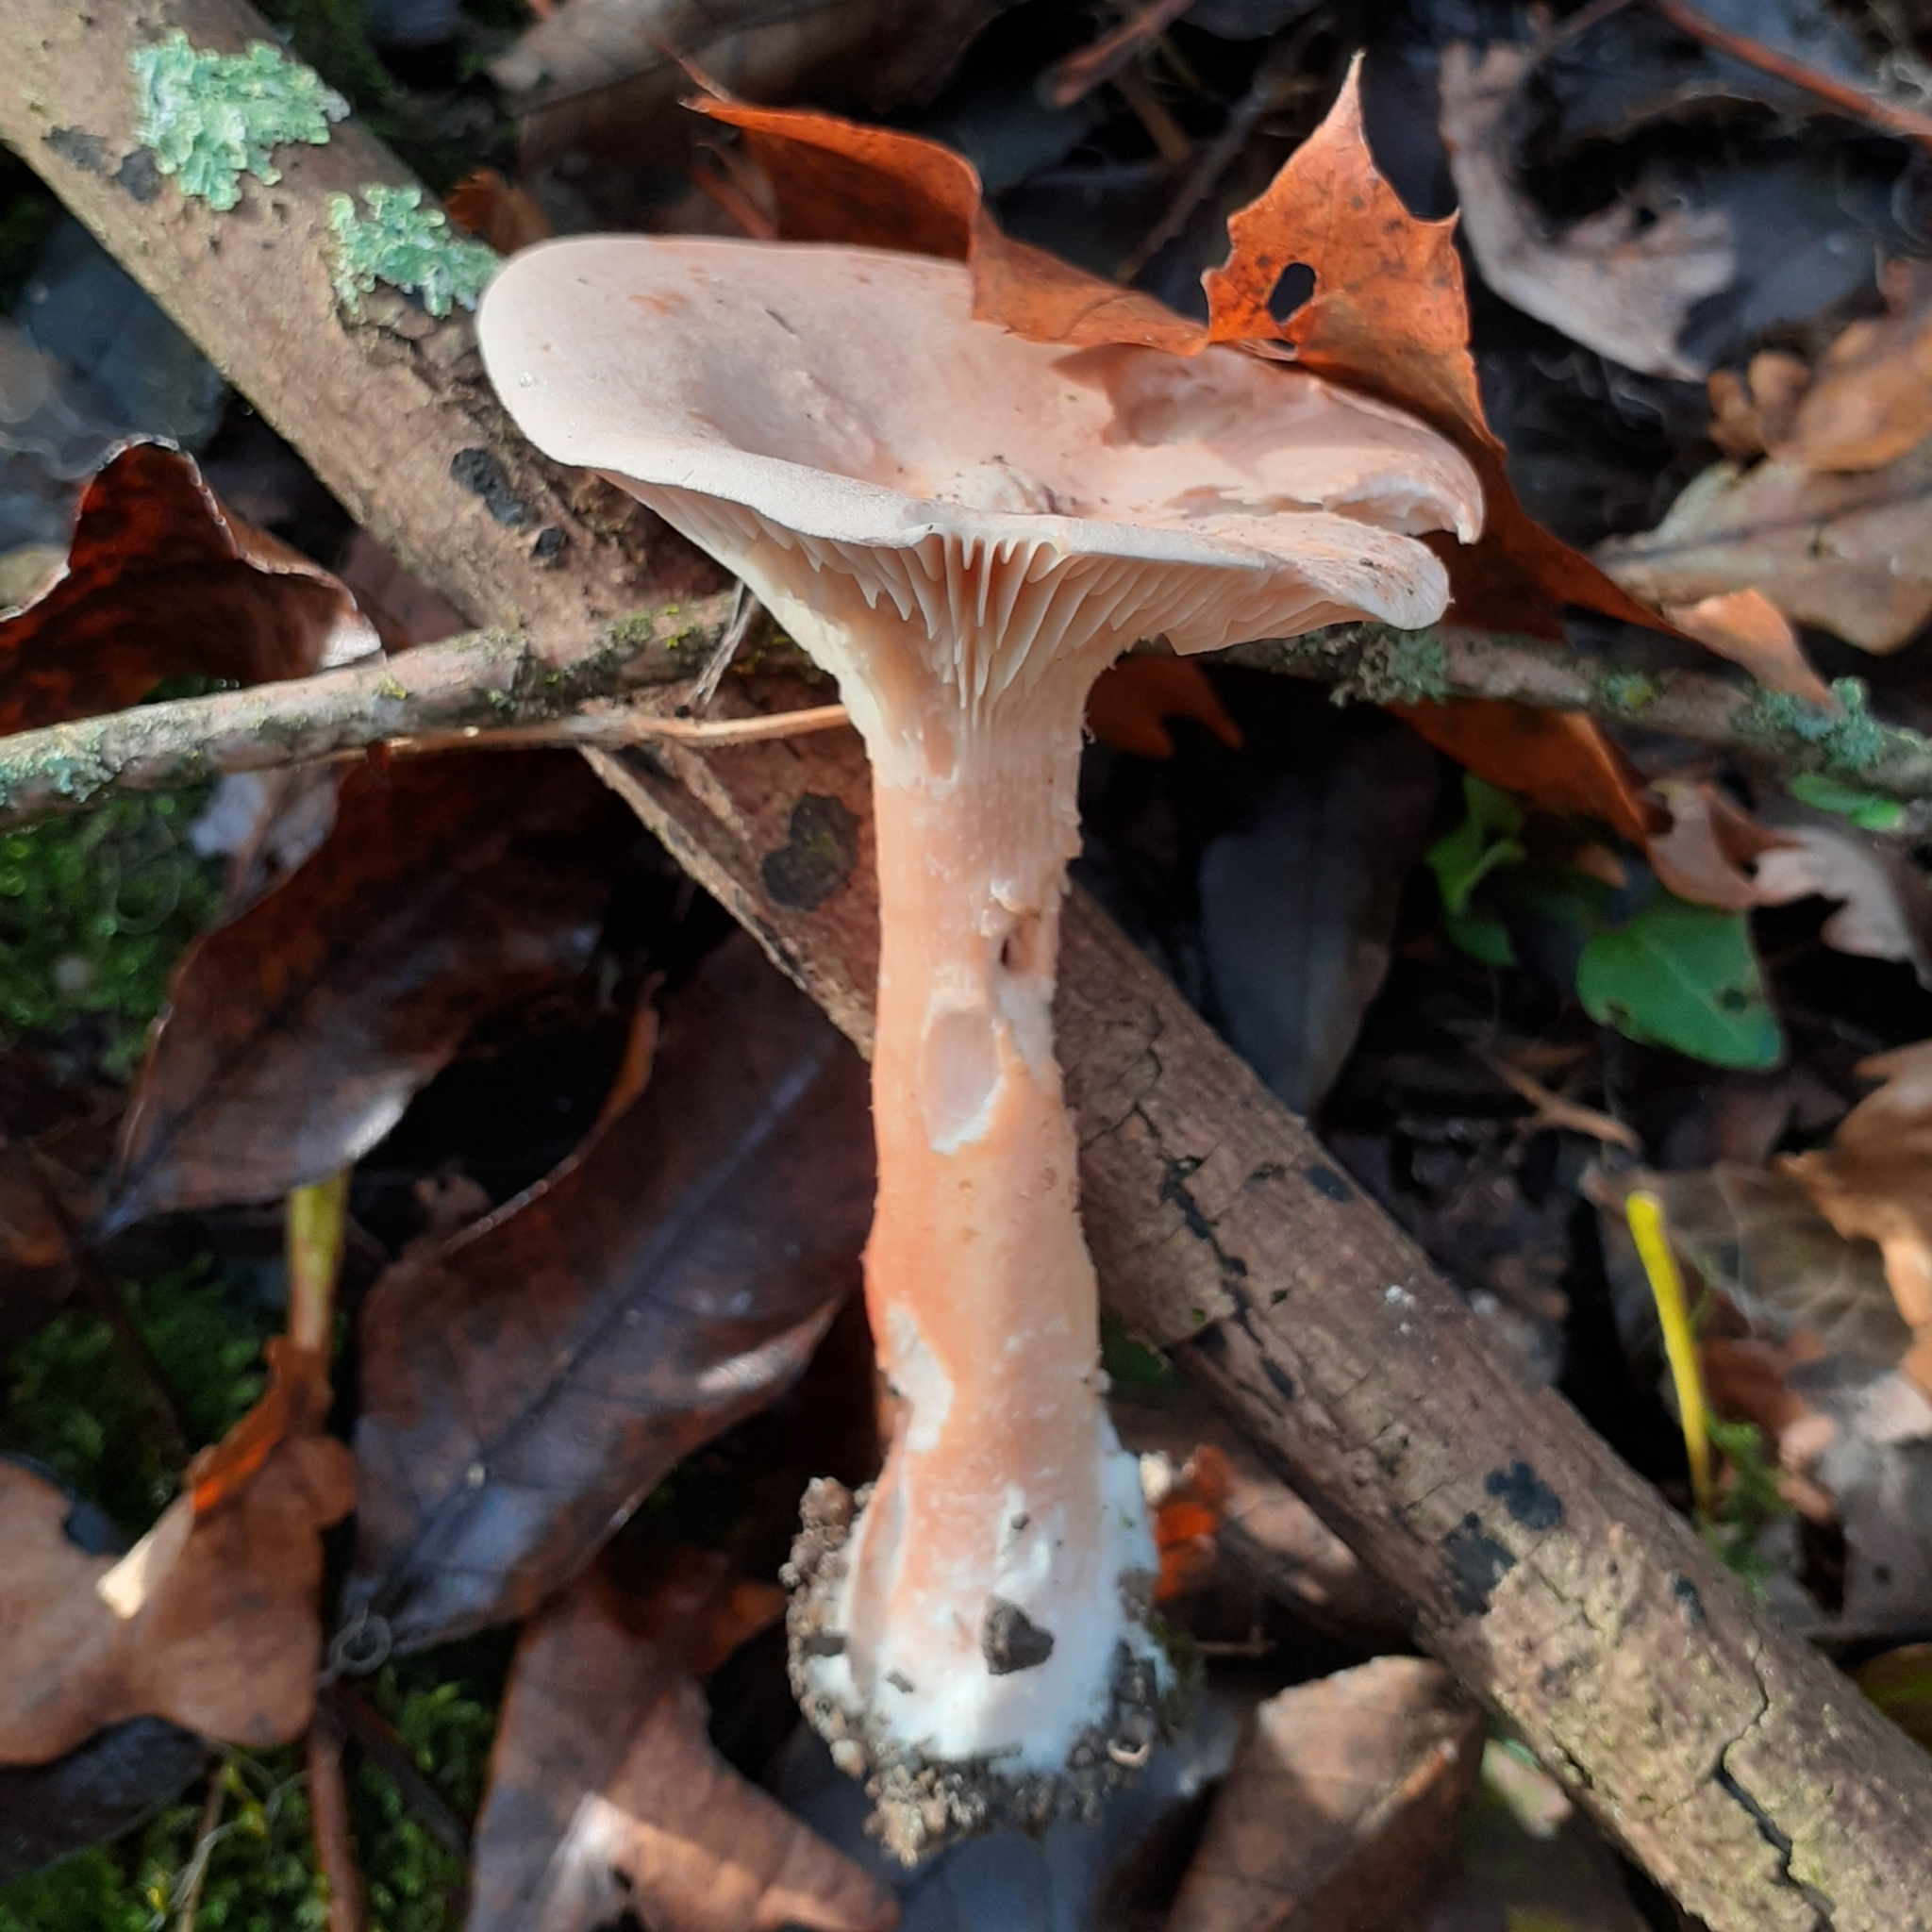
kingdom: Fungi
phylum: Basidiomycota
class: Agaricomycetes
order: Agaricales
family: Tricholomataceae
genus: Infundibulicybe
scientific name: Infundibulicybe geotropa
